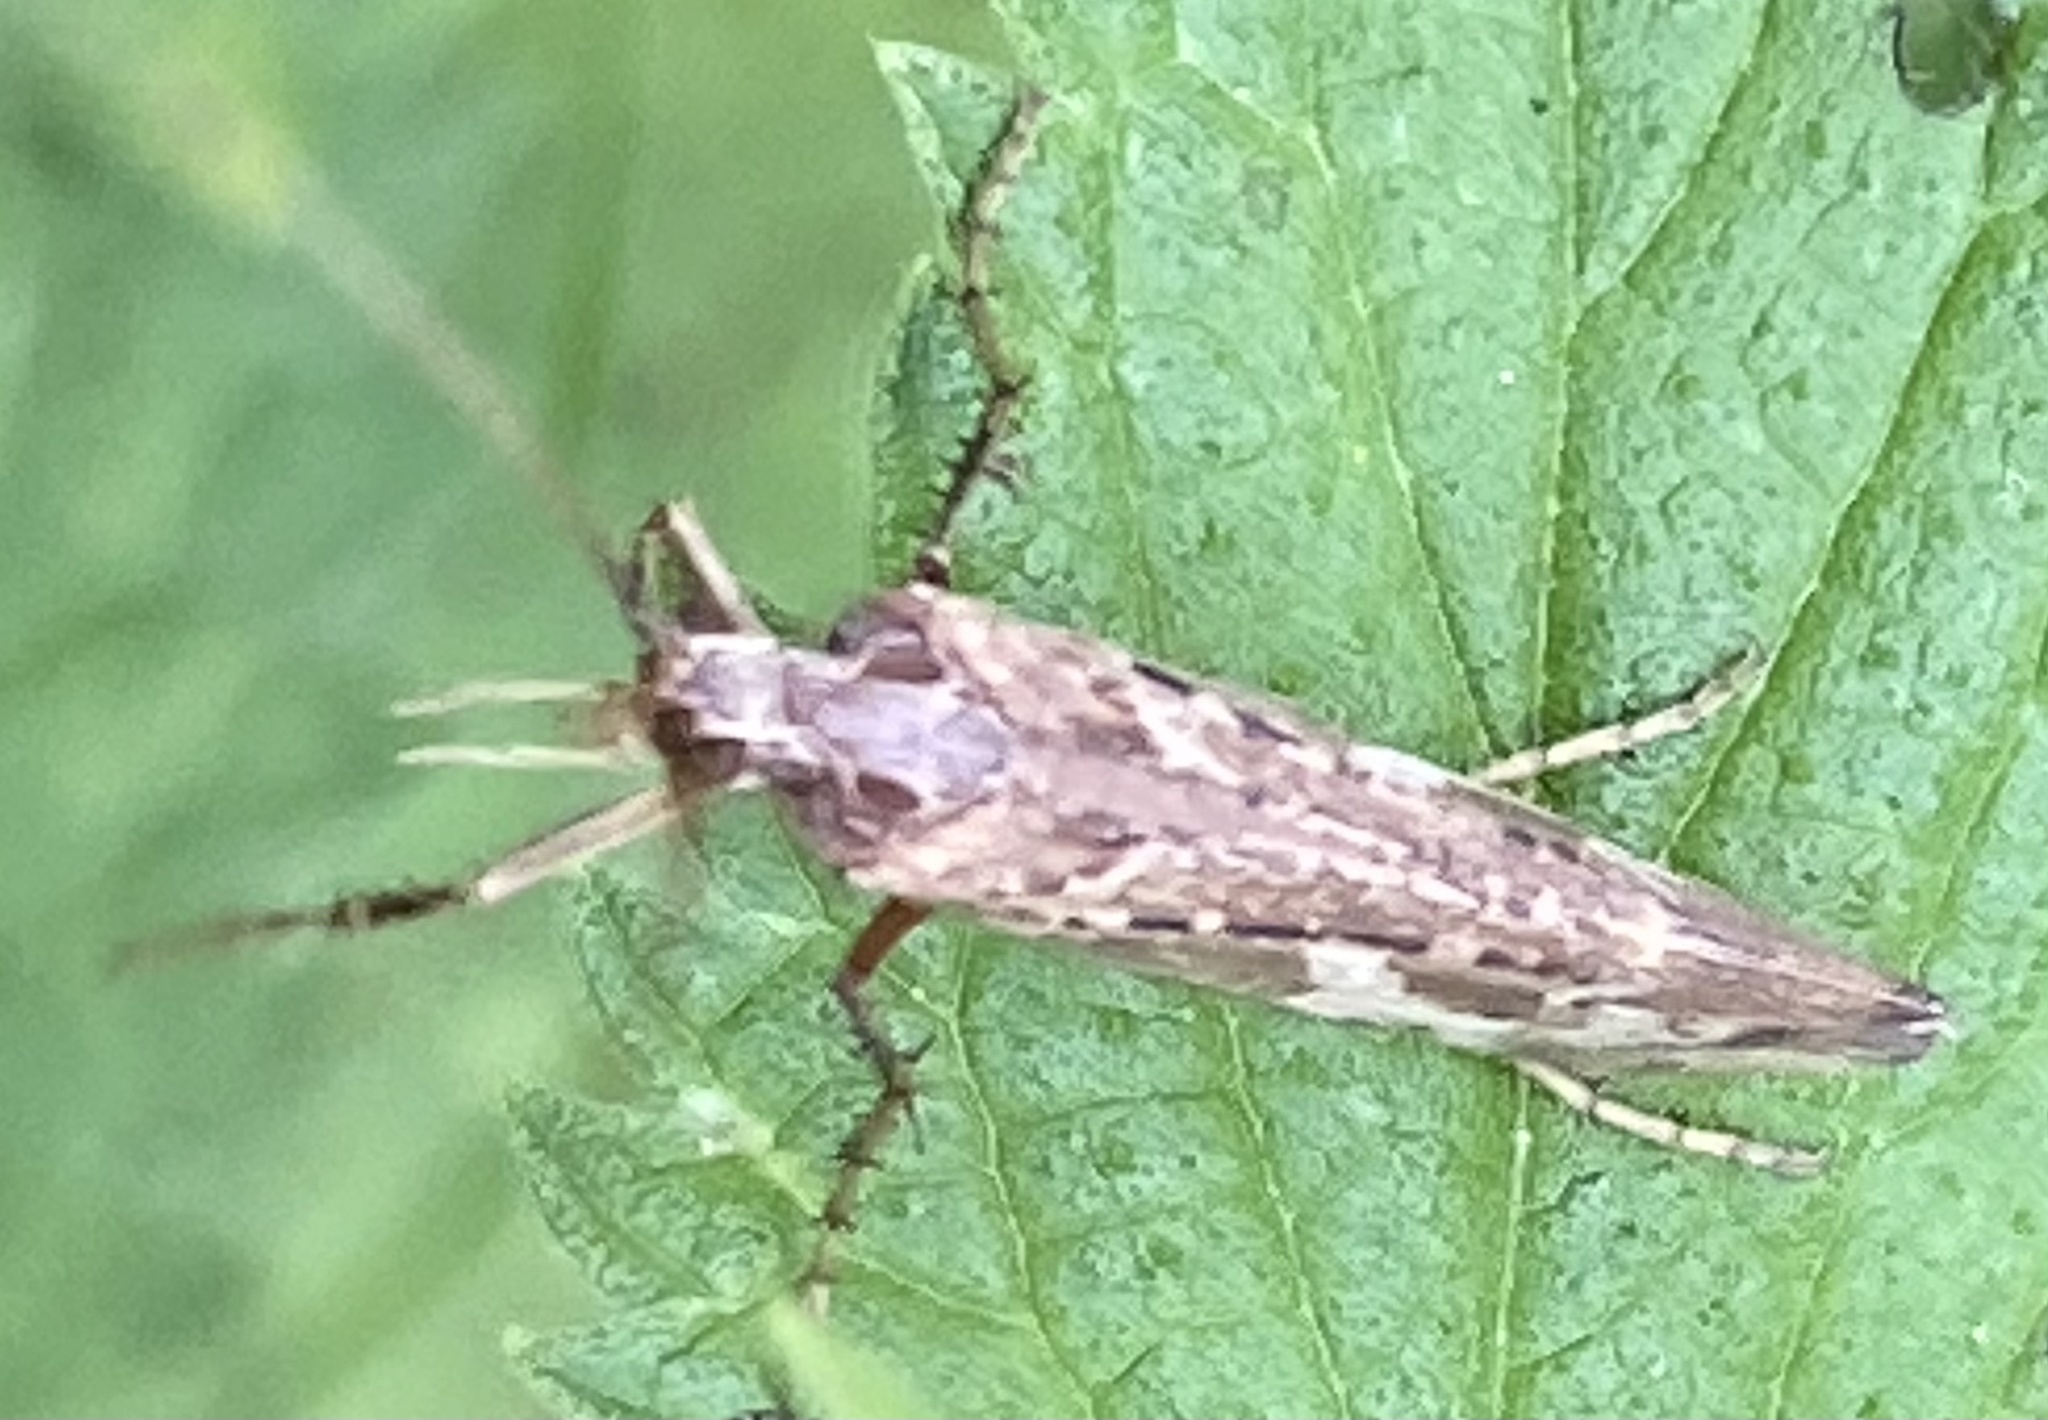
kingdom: Animalia
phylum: Arthropoda
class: Insecta
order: Trichoptera
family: Limnephilidae
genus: Glyphotaelius
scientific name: Glyphotaelius pellucidus
